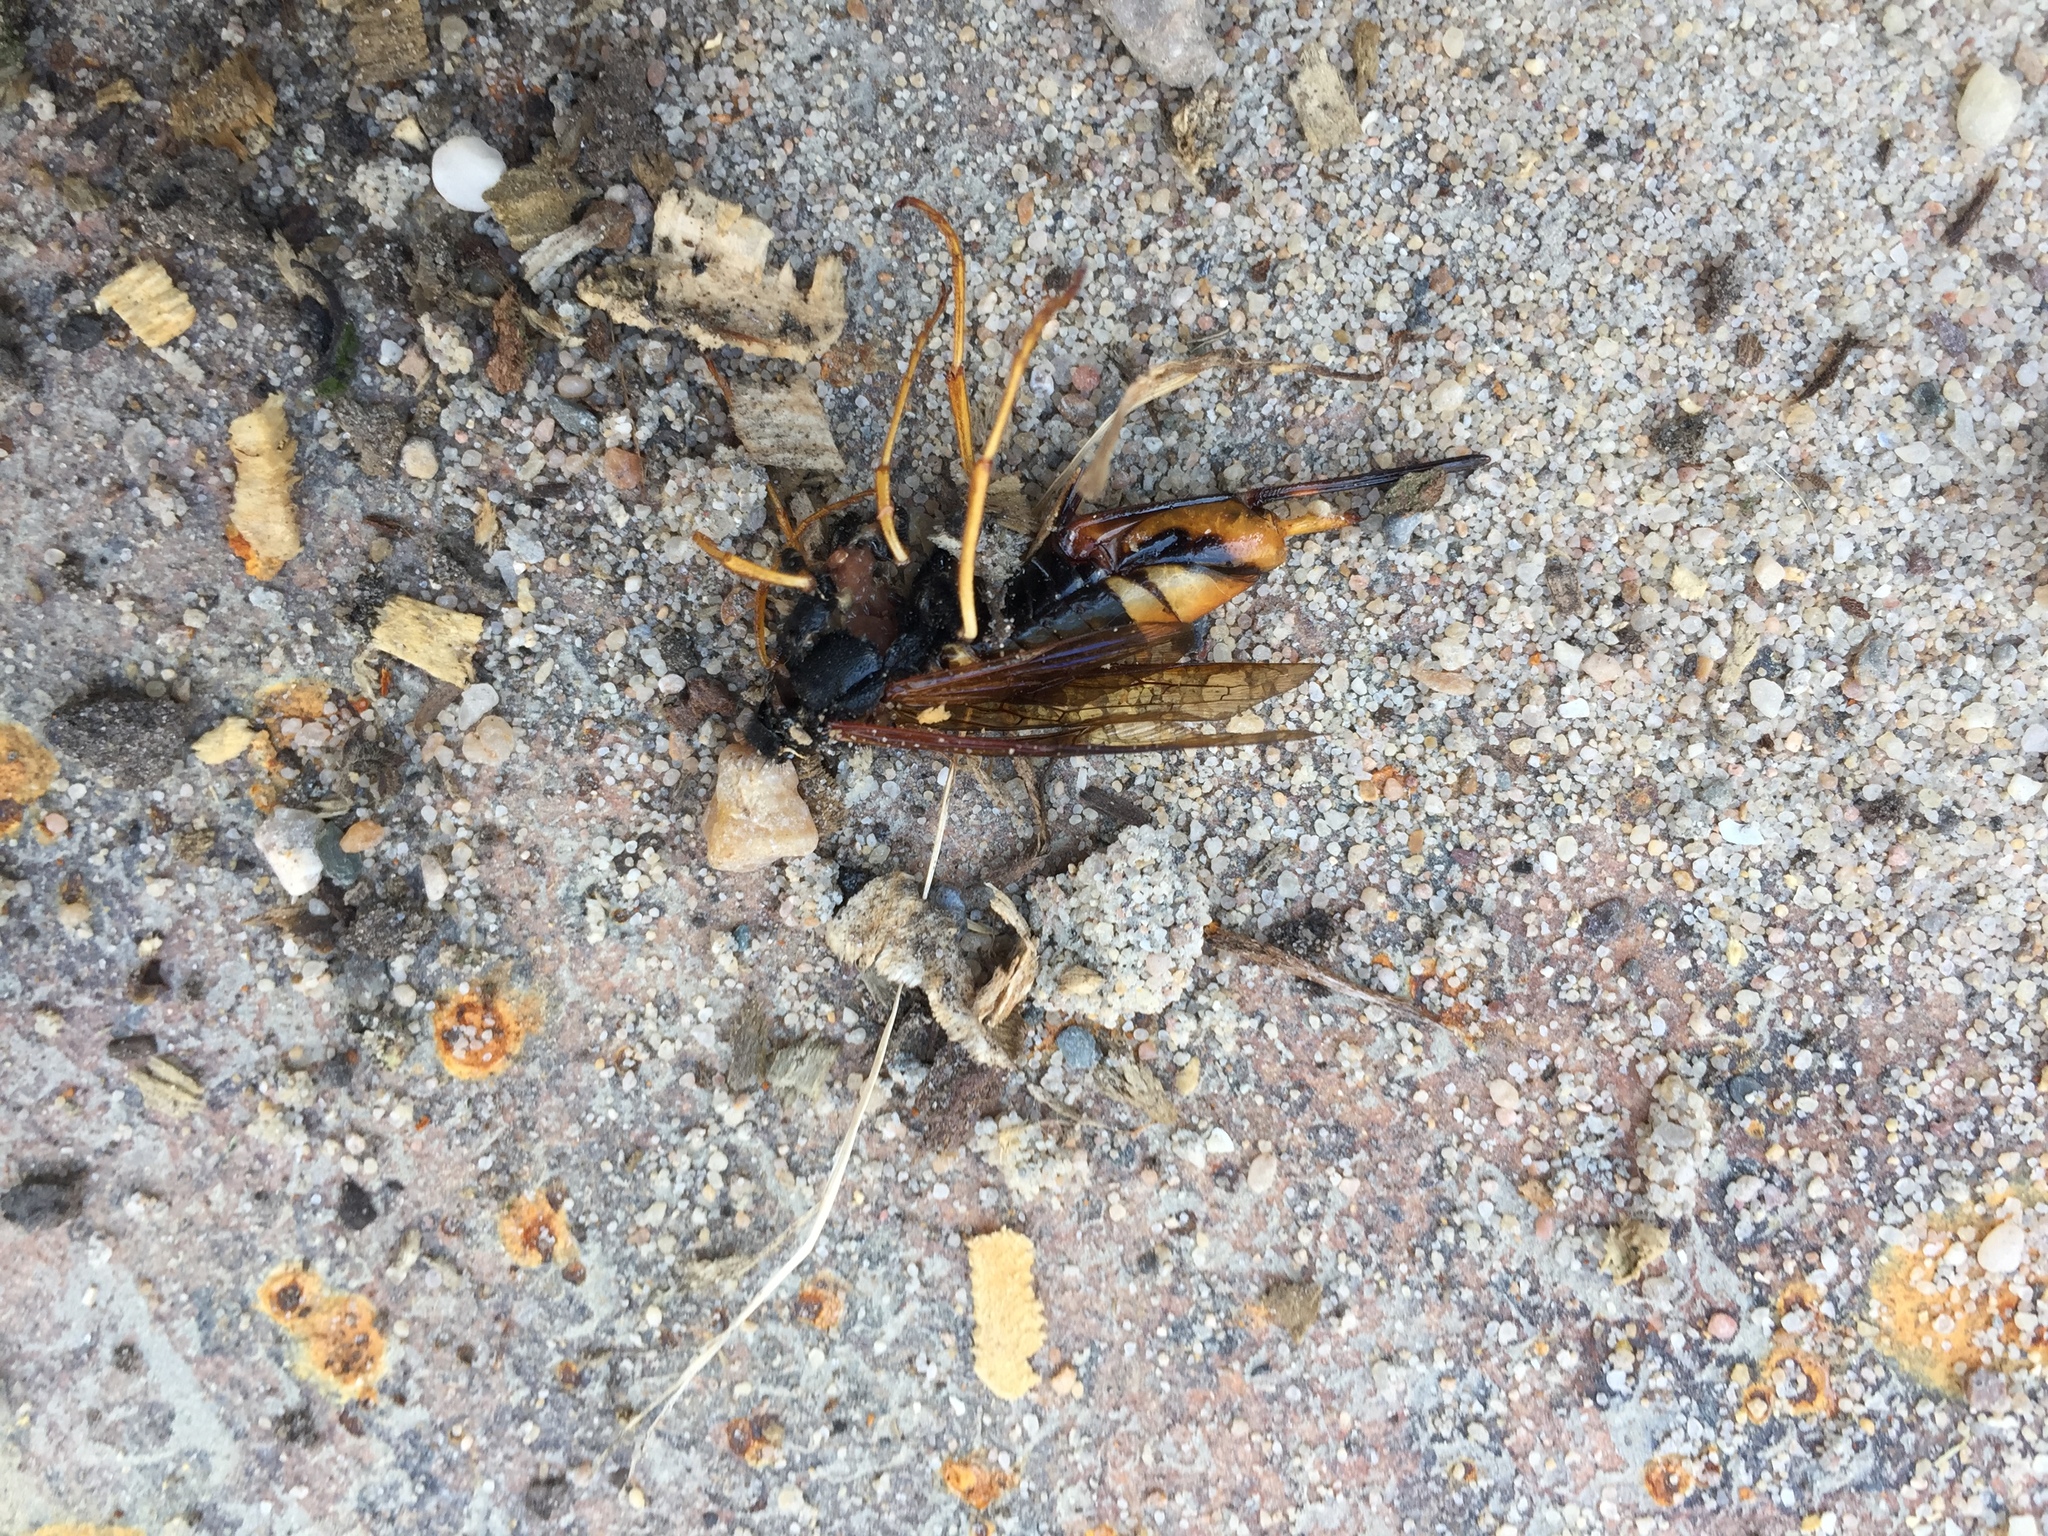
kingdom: Animalia
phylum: Arthropoda
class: Insecta
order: Hymenoptera
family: Siricidae
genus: Urocerus
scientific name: Urocerus gigas
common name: Giant woodwasp
